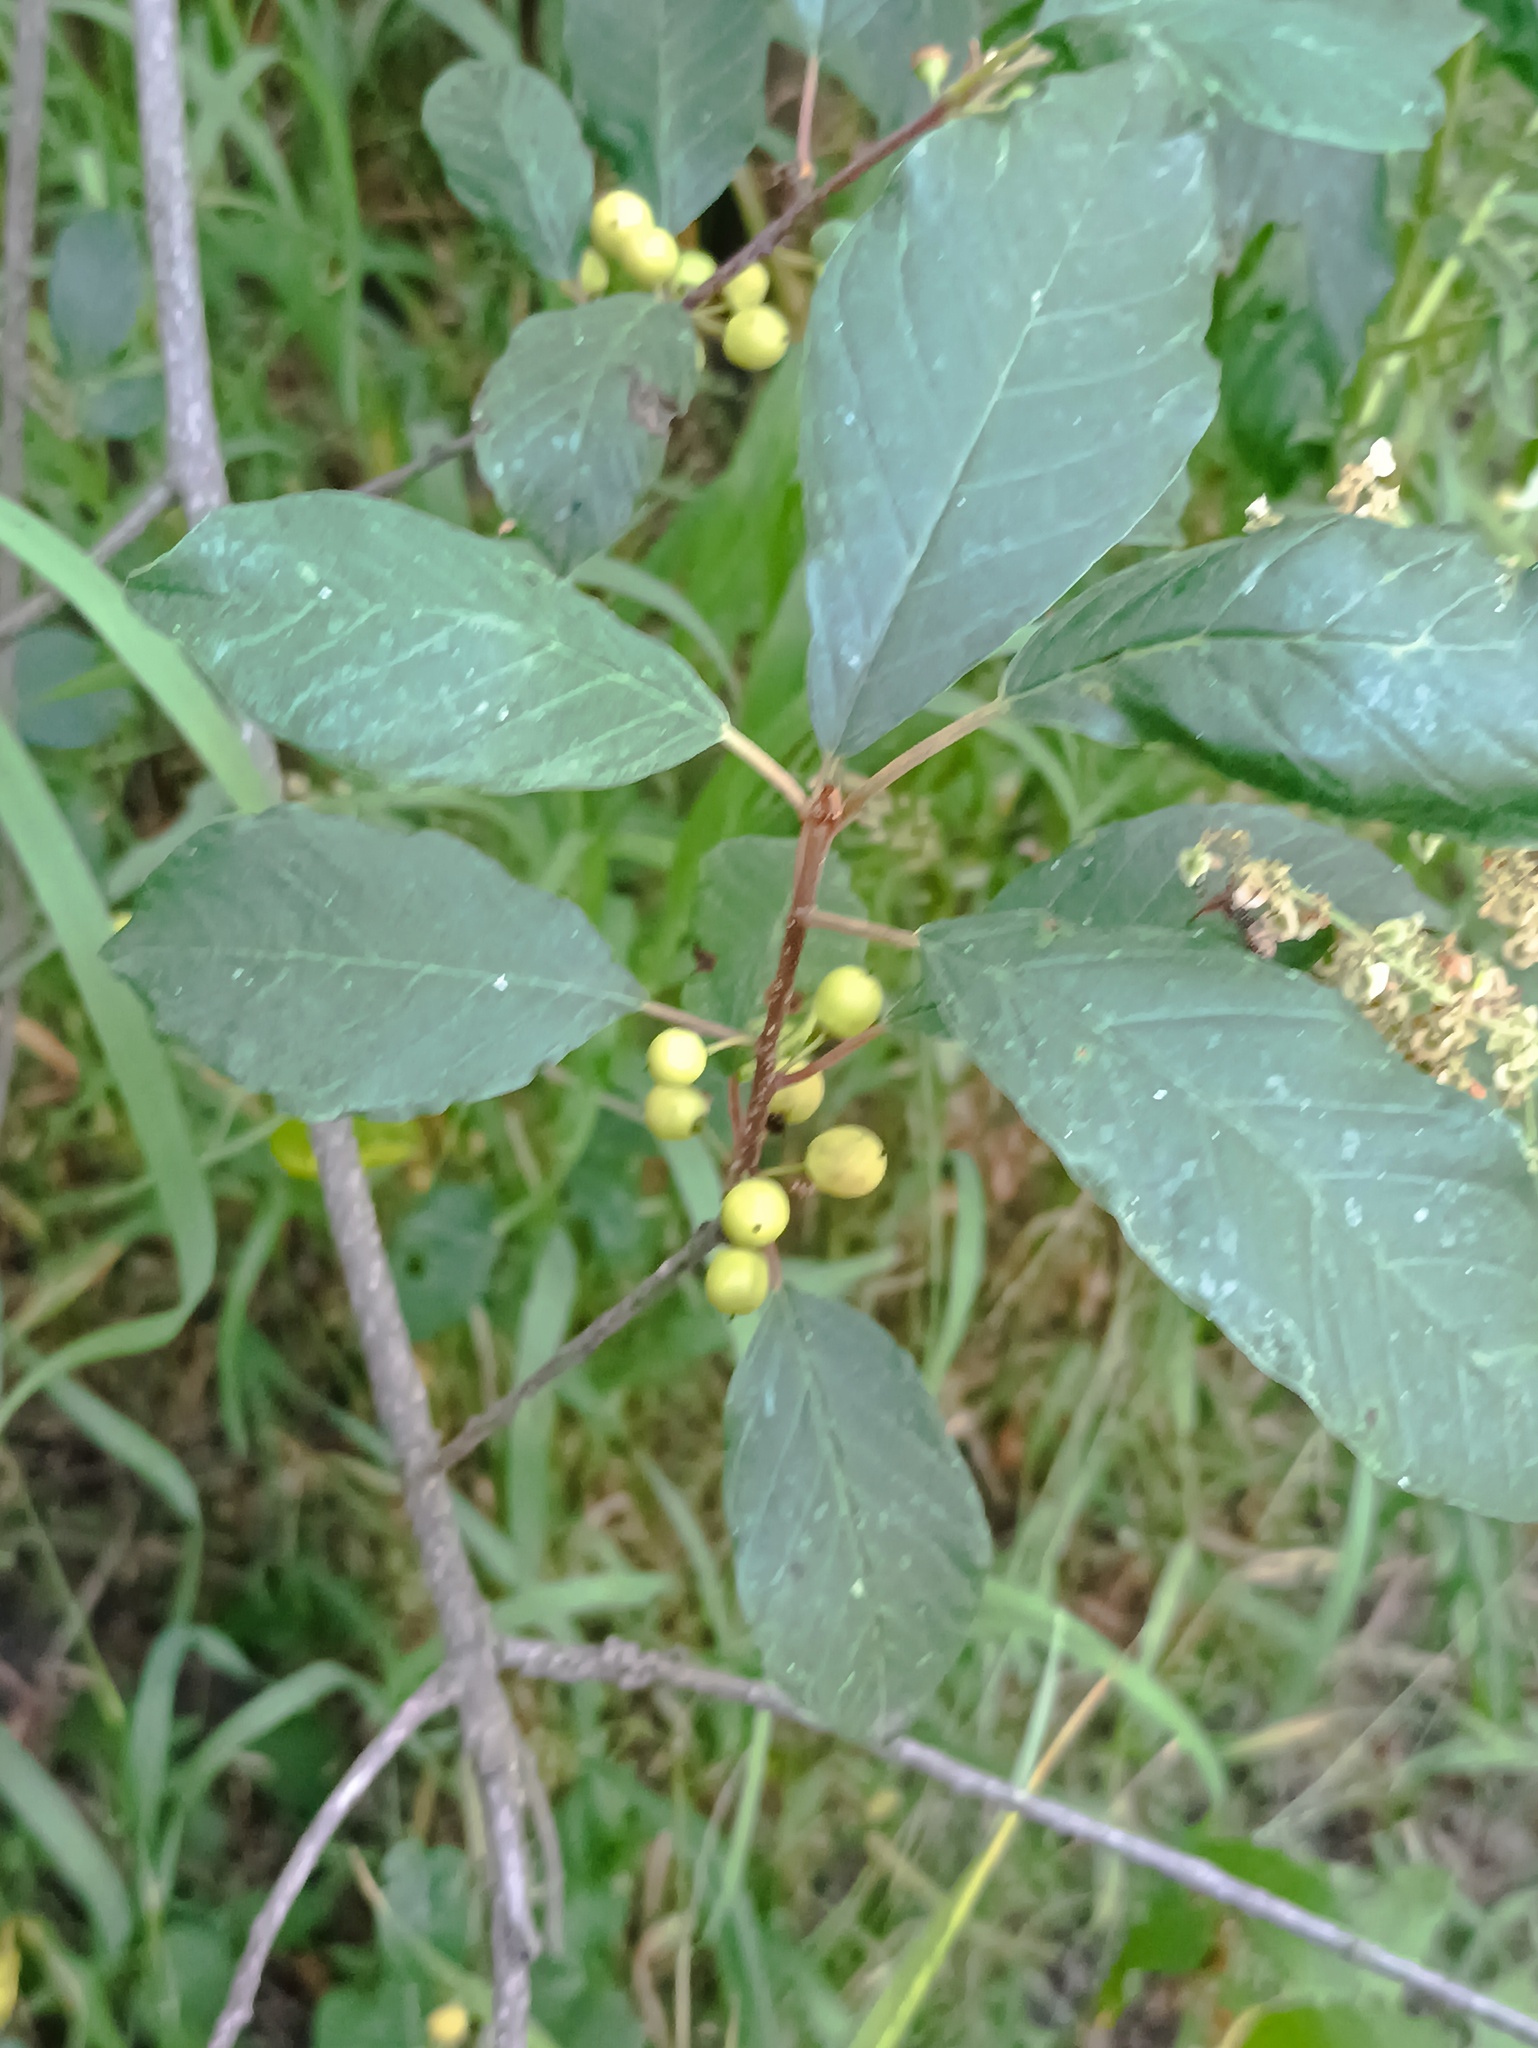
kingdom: Plantae
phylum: Tracheophyta
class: Magnoliopsida
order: Rosales
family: Rhamnaceae
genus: Frangula
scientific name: Frangula alnus
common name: Alder buckthorn
